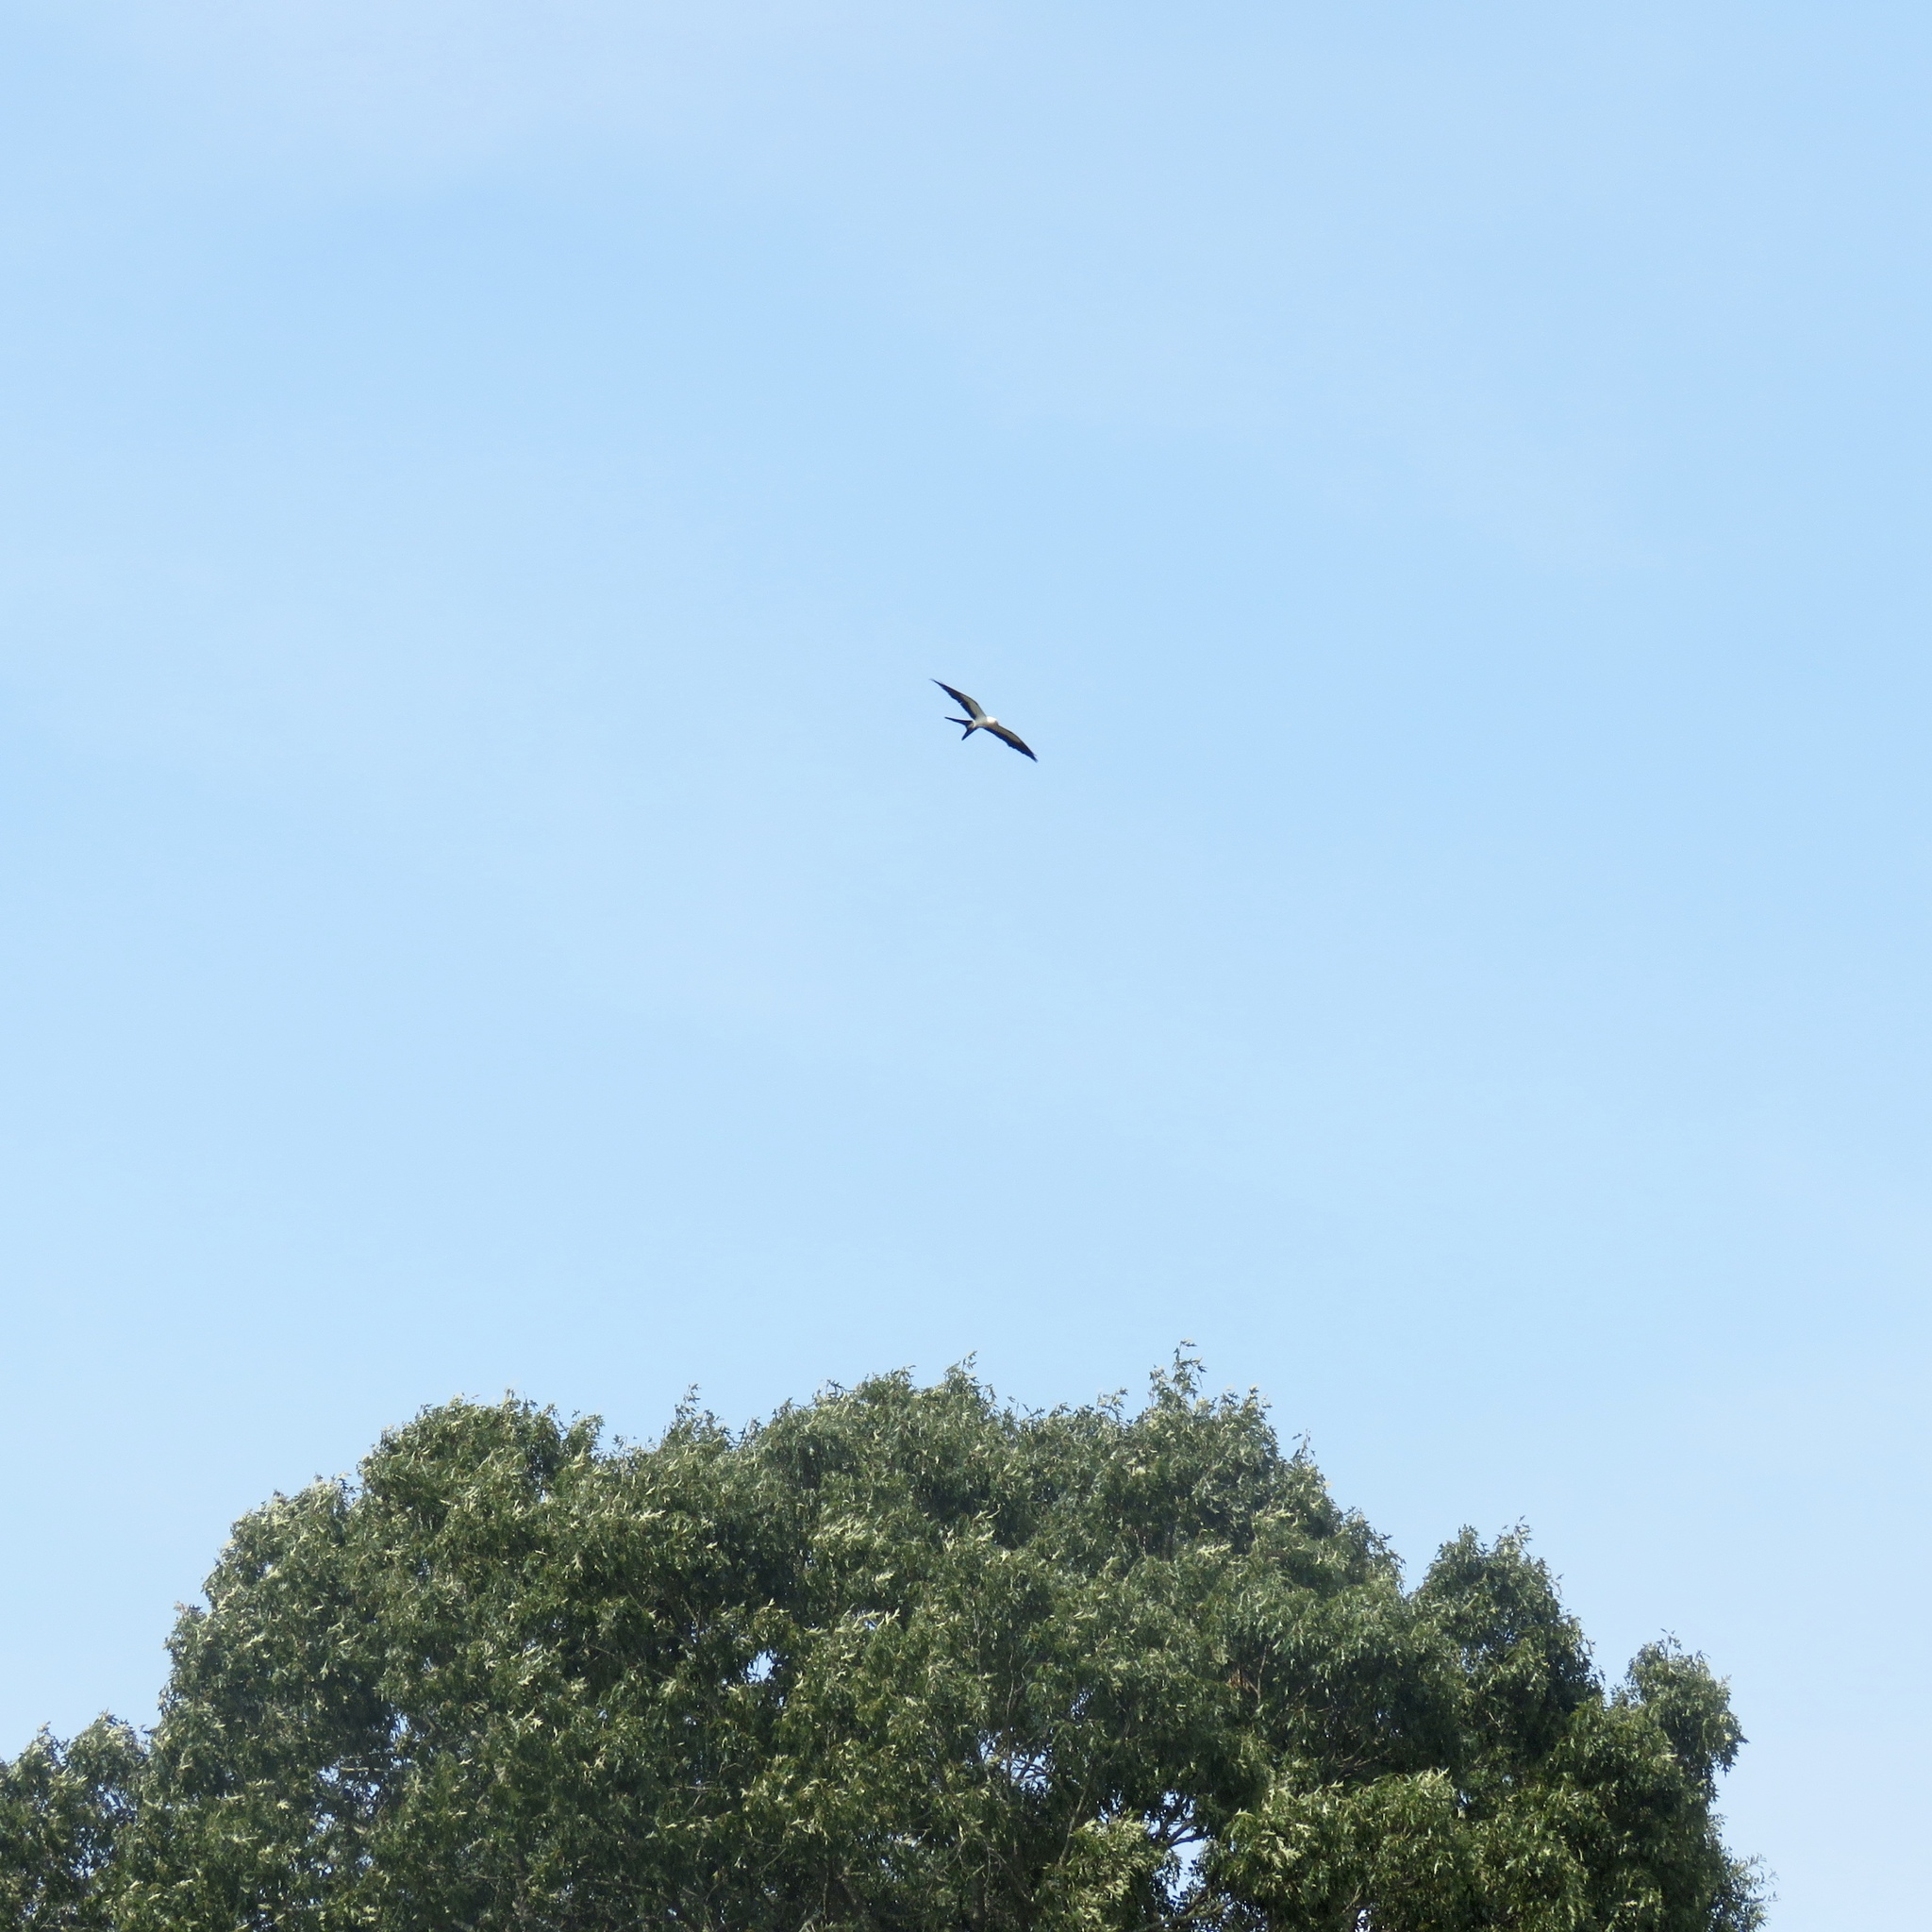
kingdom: Animalia
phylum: Chordata
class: Aves
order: Accipitriformes
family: Accipitridae
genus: Elanoides
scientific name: Elanoides forficatus
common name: Swallow-tailed kite
